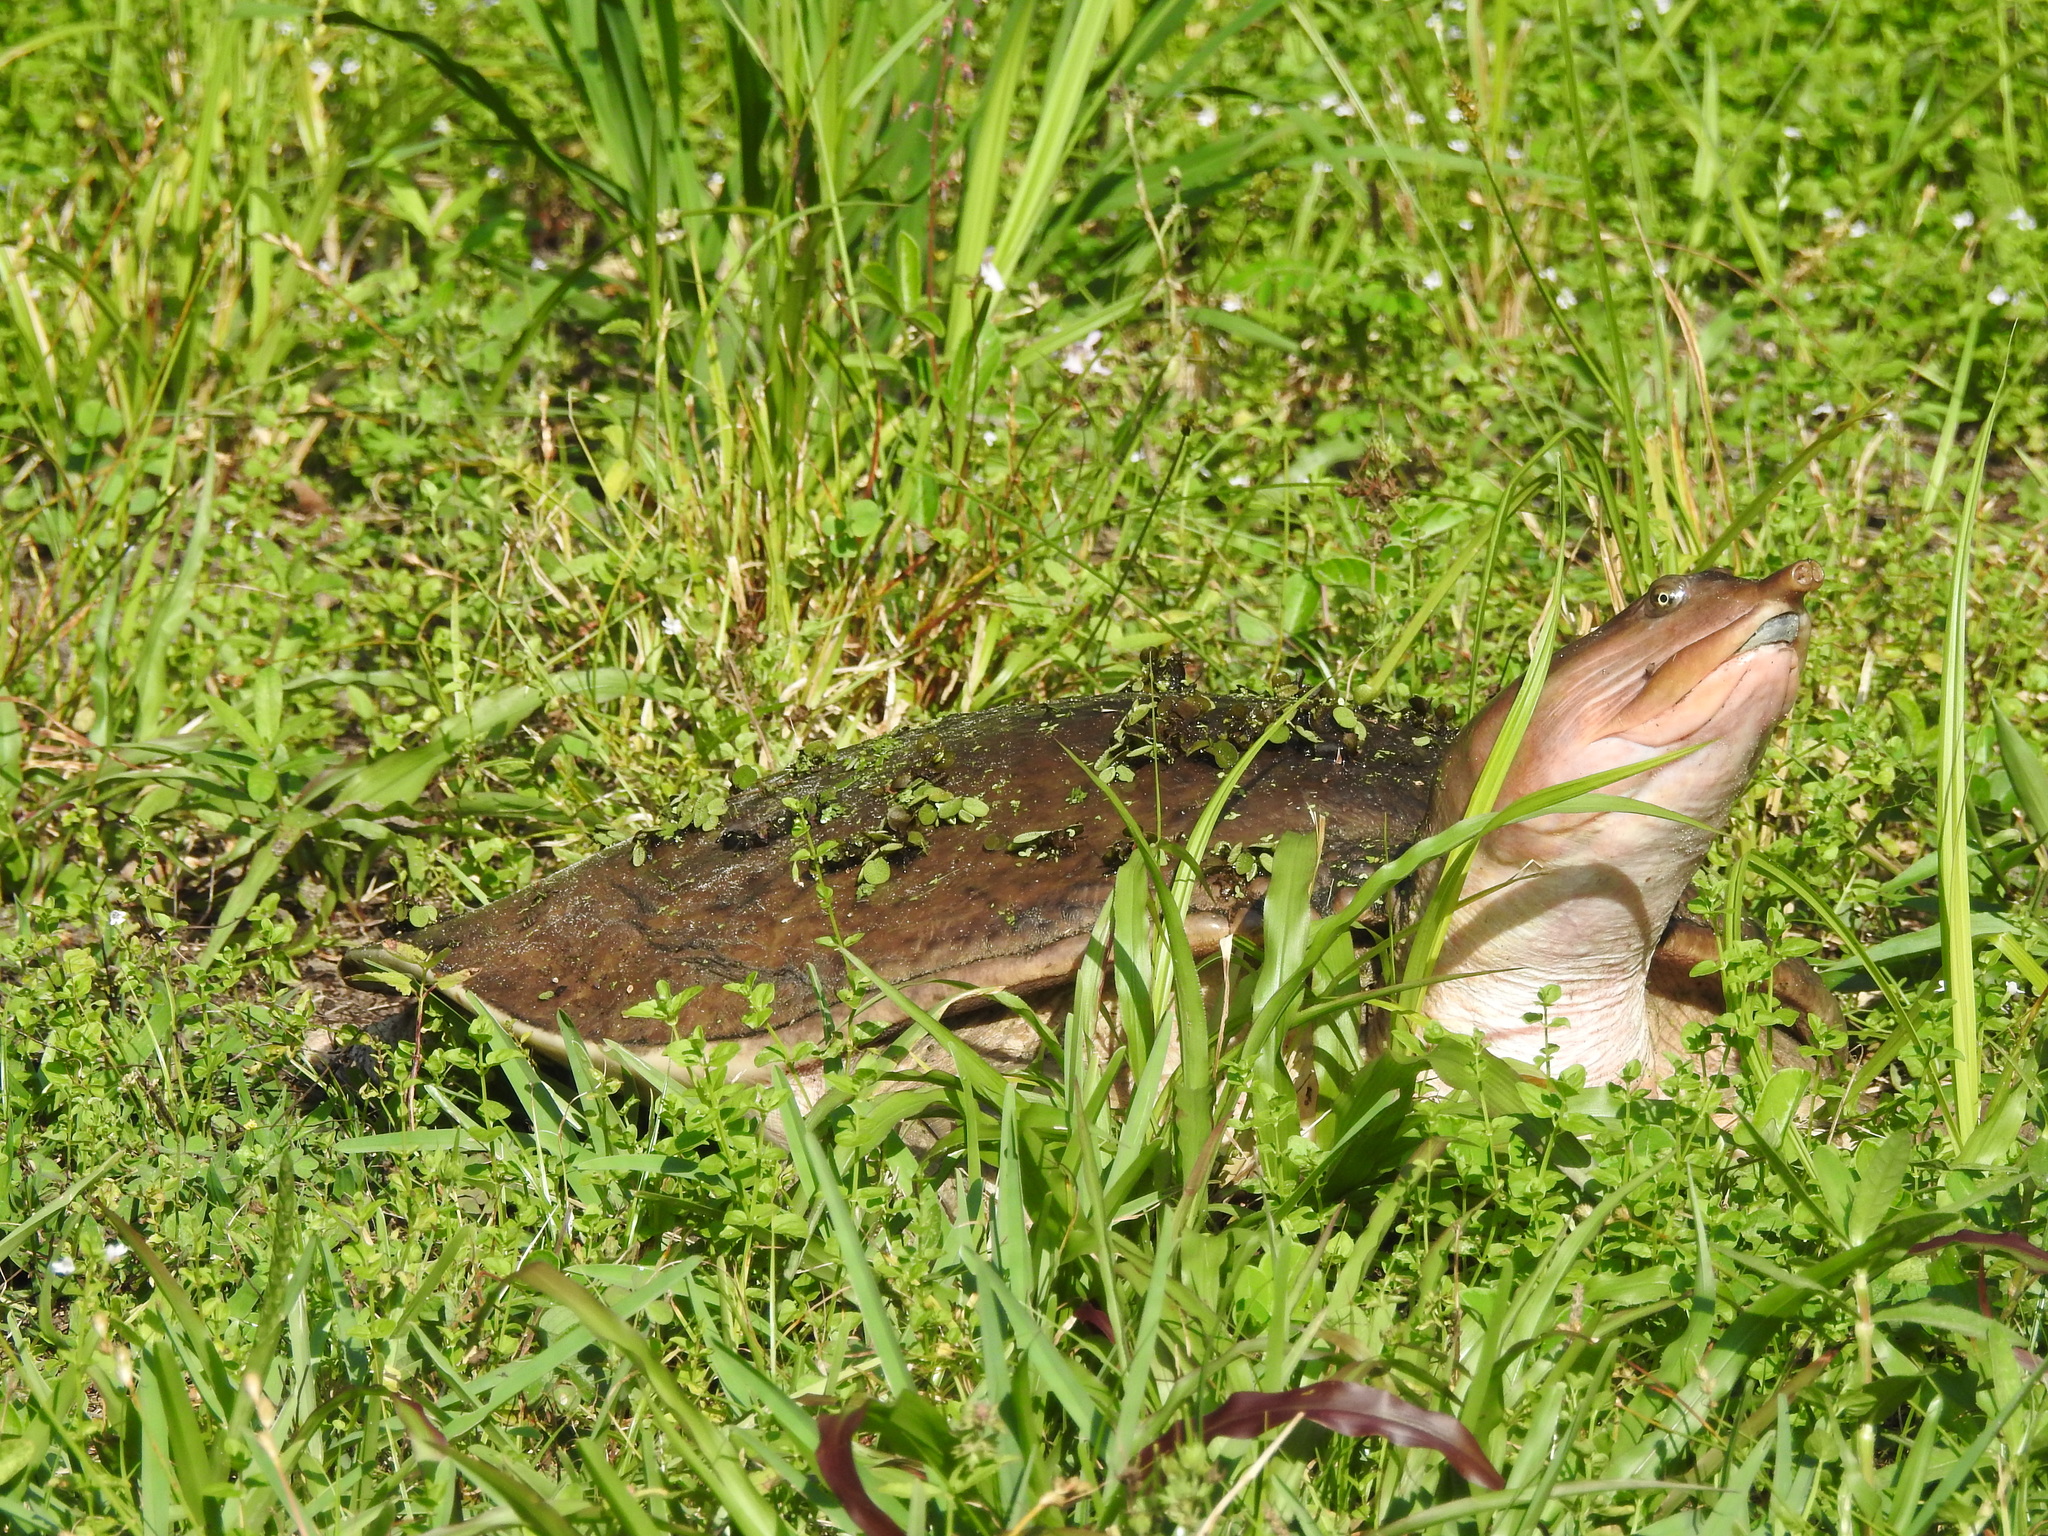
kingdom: Animalia
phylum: Chordata
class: Testudines
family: Trionychidae
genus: Apalone
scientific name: Apalone ferox
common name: Florida softshell turtle
